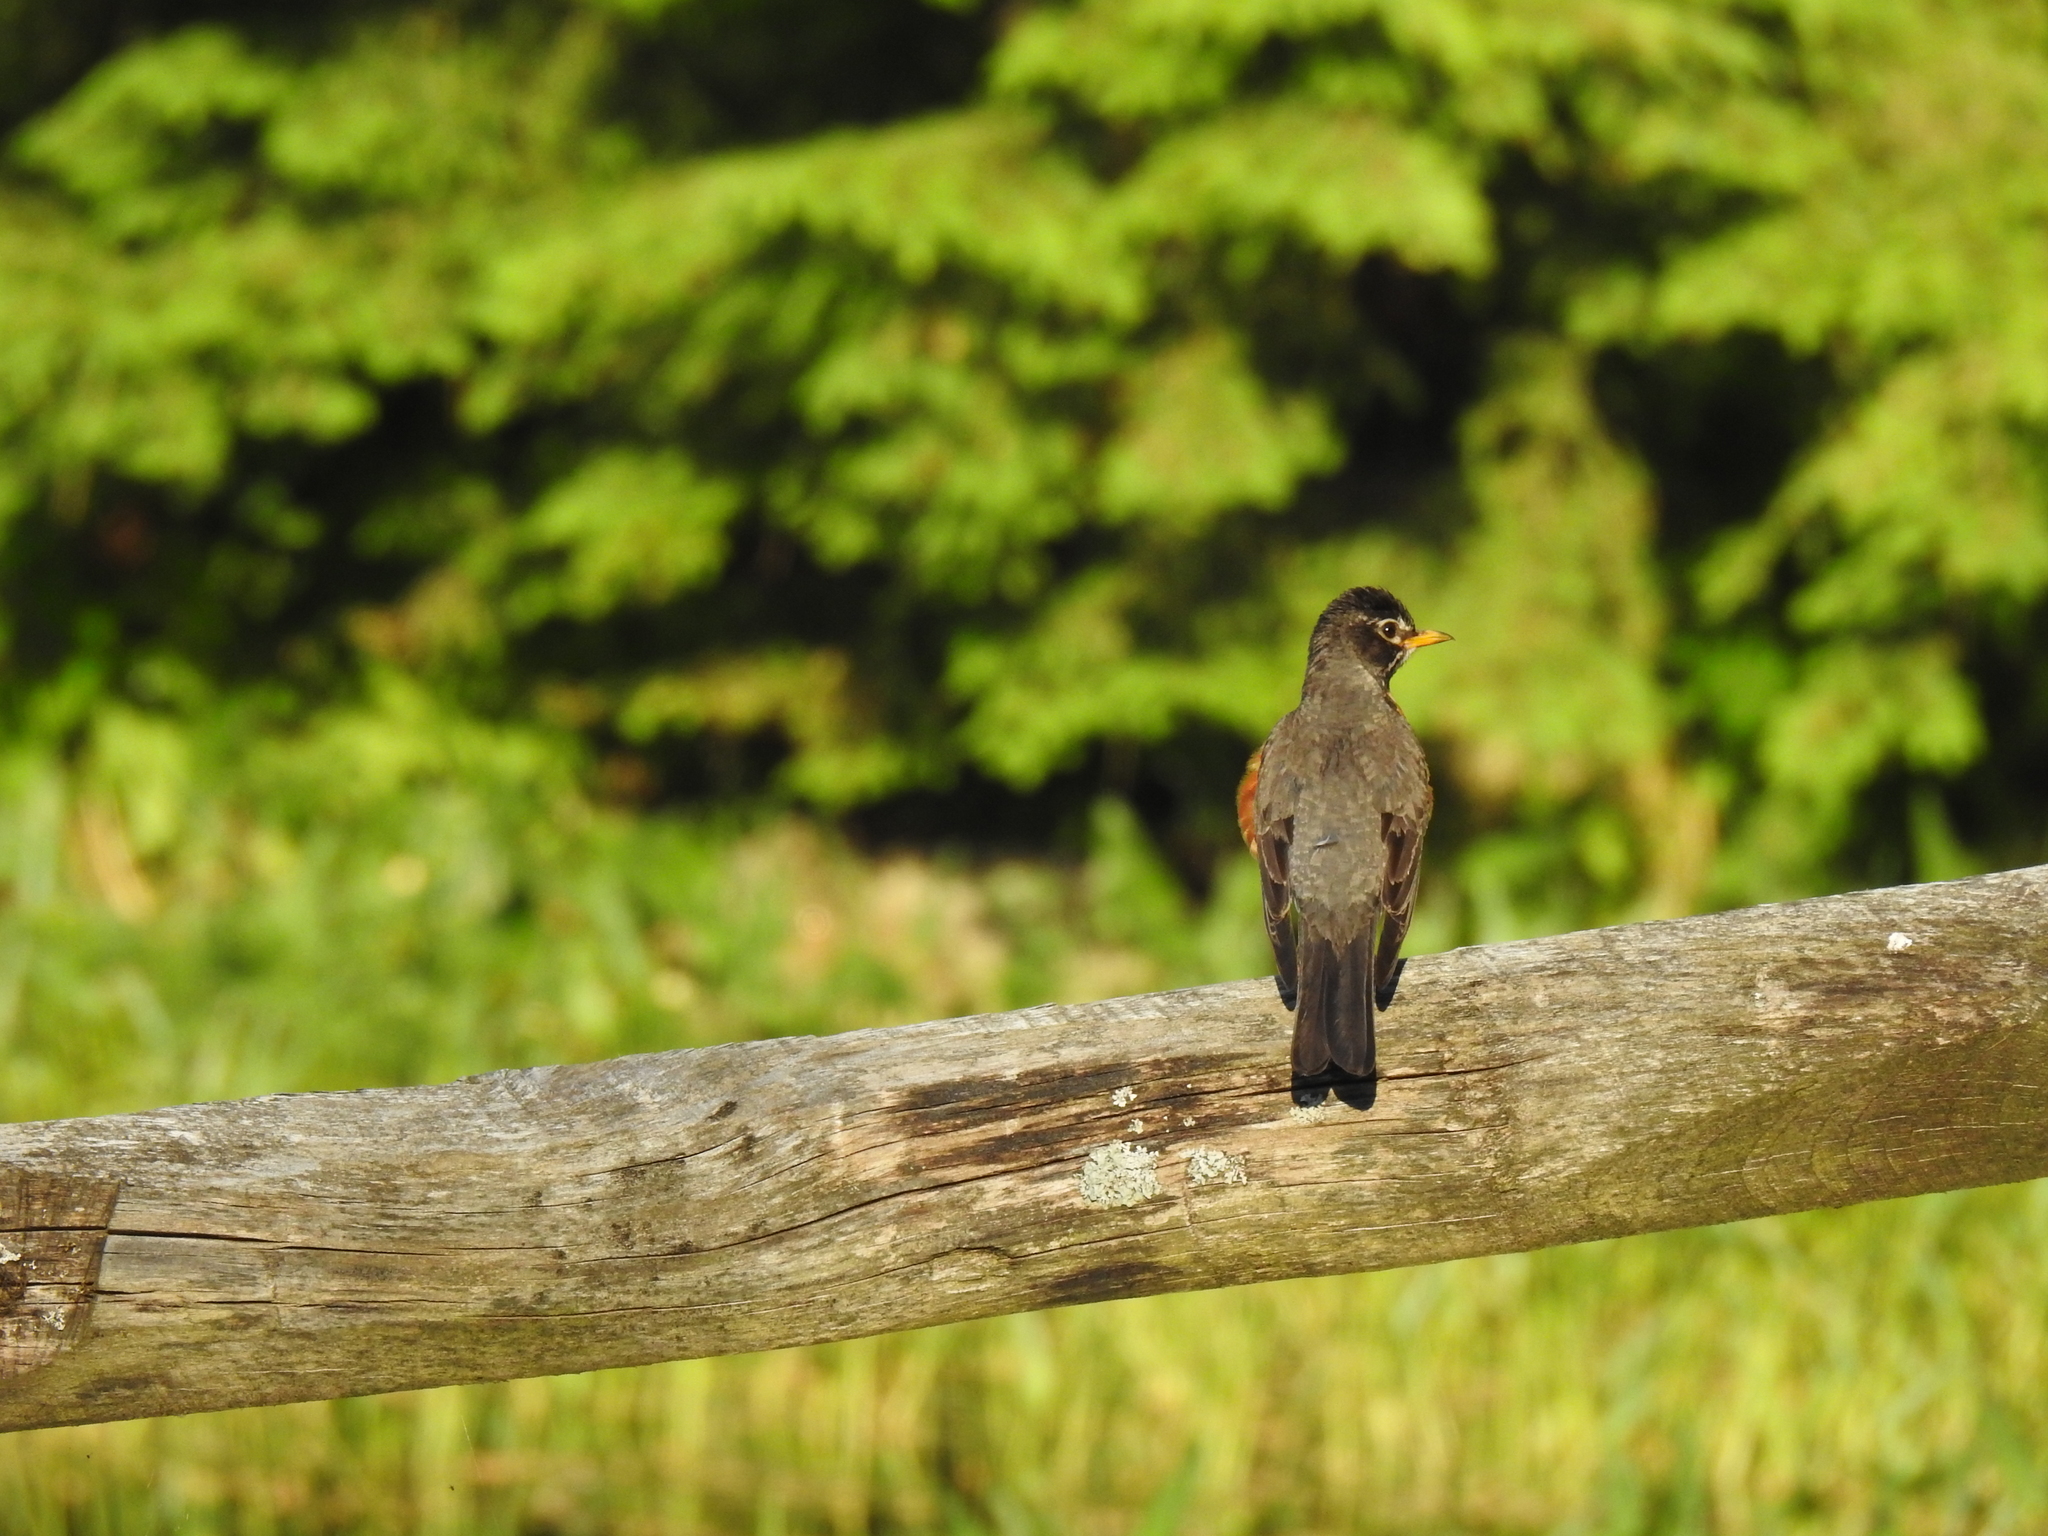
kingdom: Animalia
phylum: Chordata
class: Aves
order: Passeriformes
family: Turdidae
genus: Turdus
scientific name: Turdus migratorius
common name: American robin
